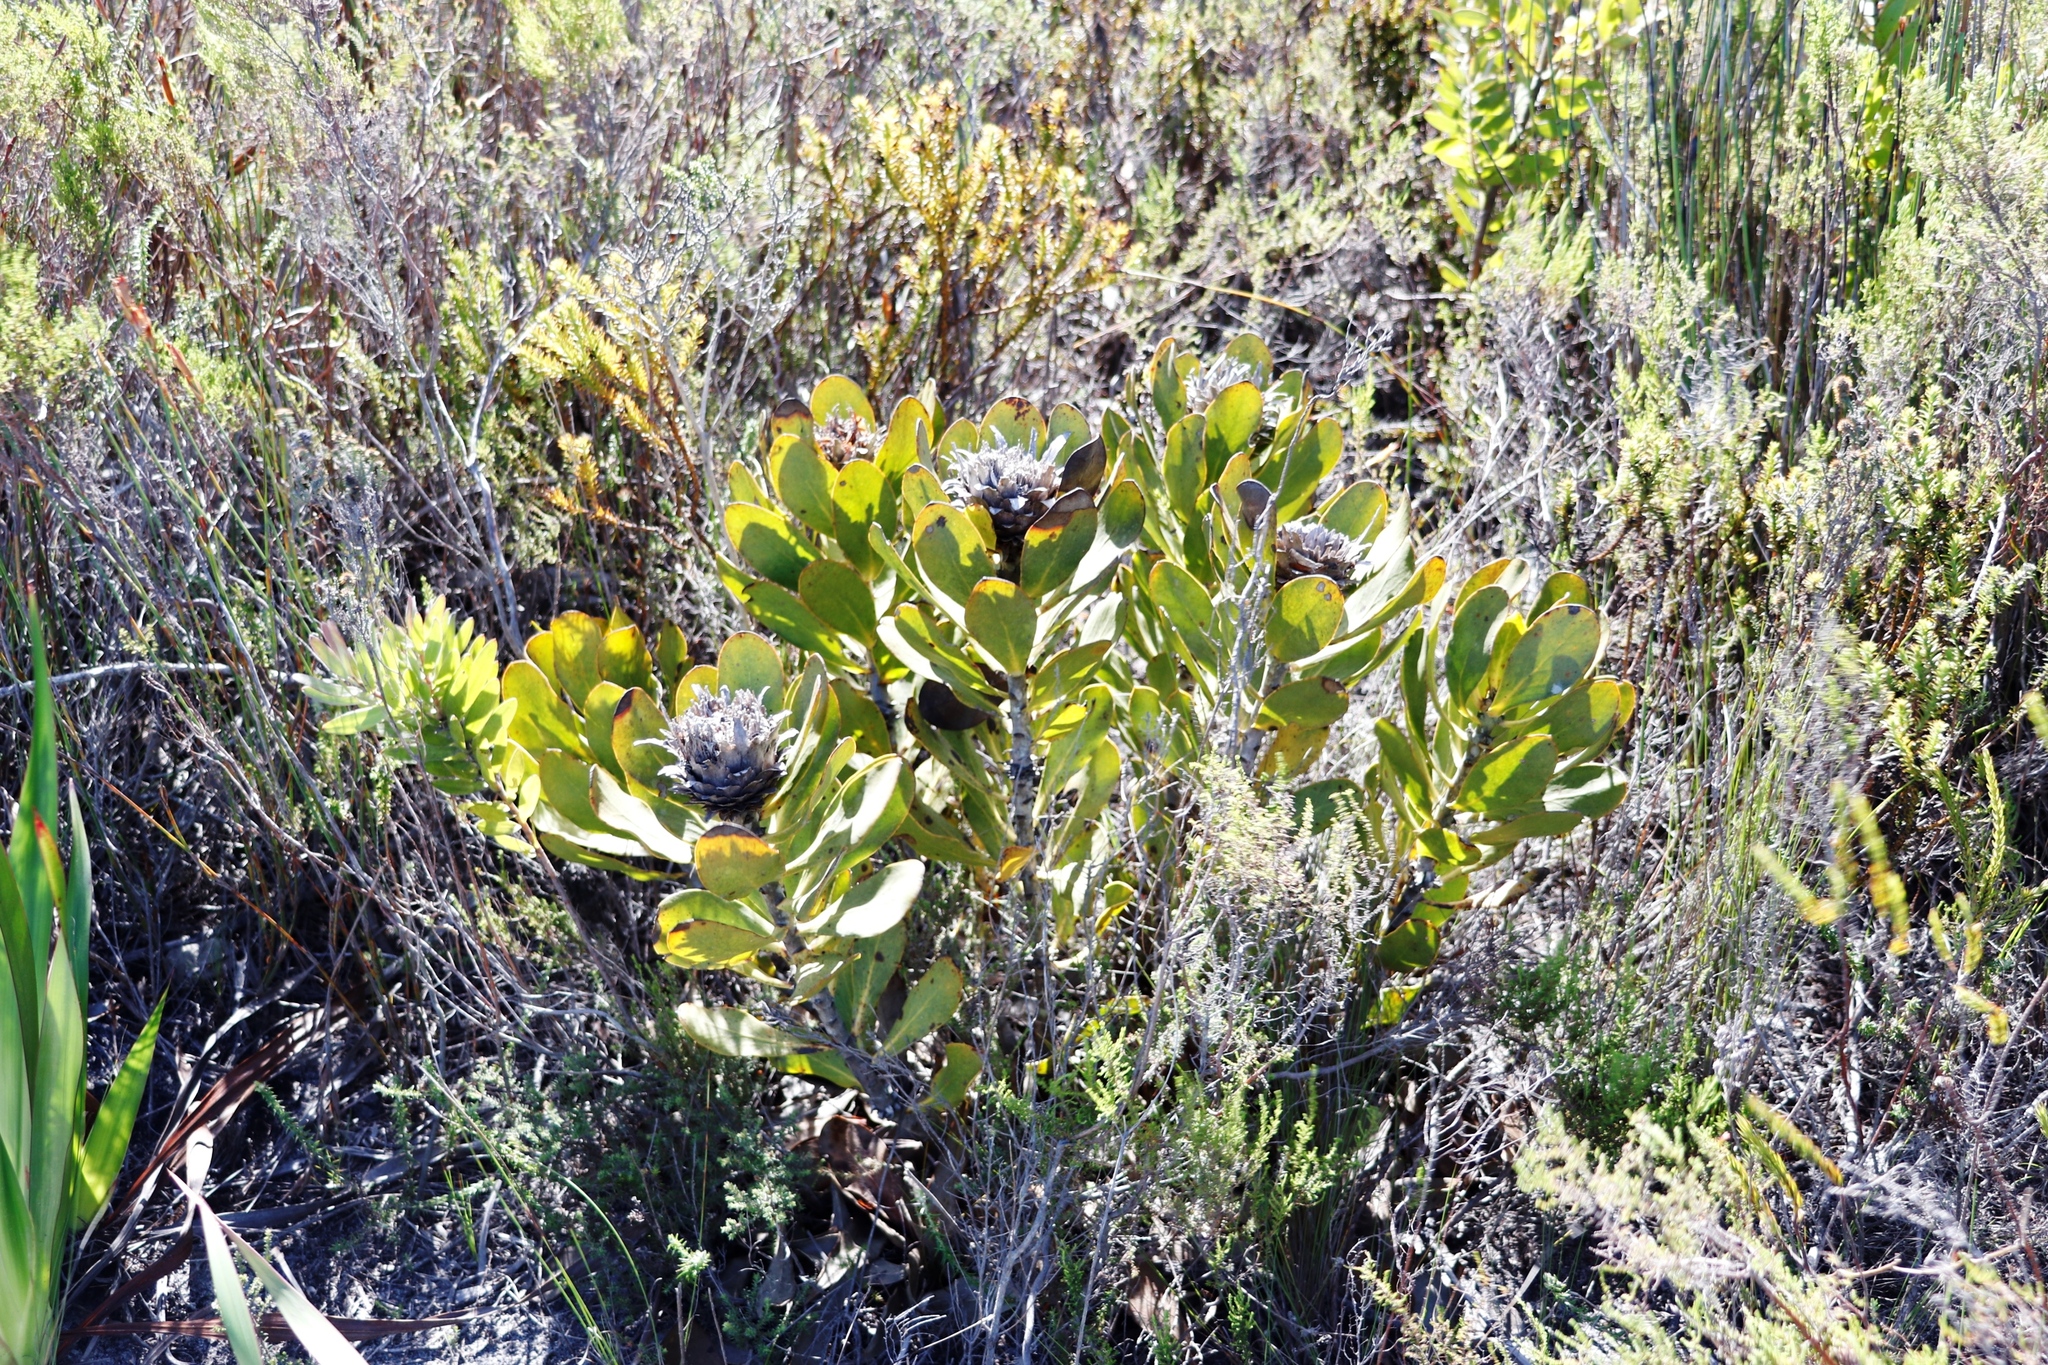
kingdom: Plantae
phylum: Tracheophyta
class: Magnoliopsida
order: Proteales
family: Proteaceae
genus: Protea
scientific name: Protea speciosa
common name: Brown-beard sugarbush
